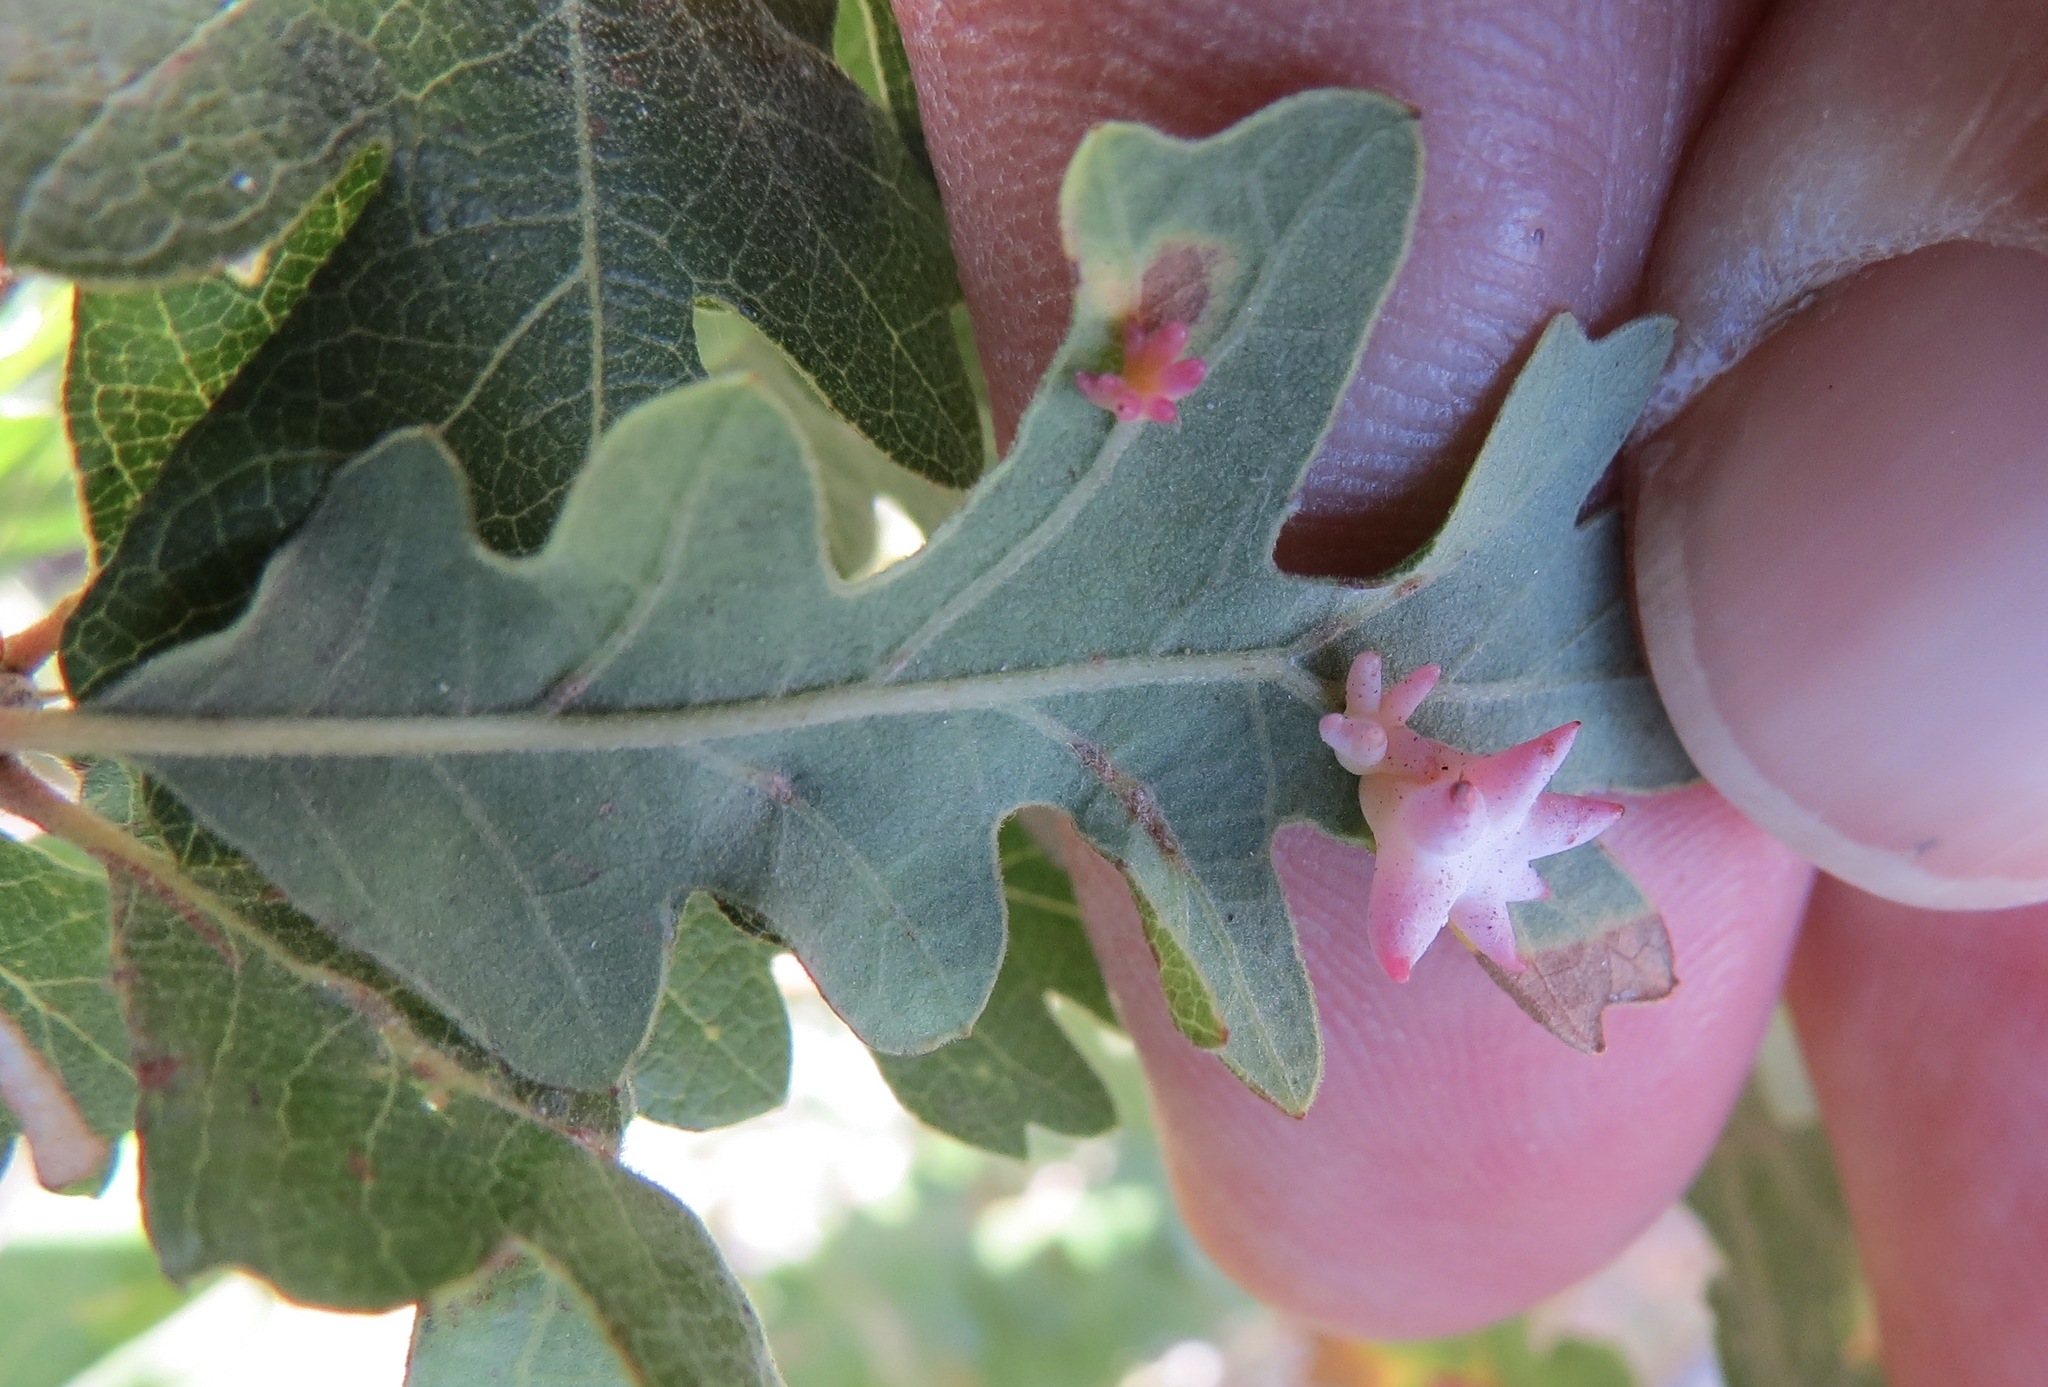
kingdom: Animalia
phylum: Arthropoda
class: Insecta
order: Hymenoptera
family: Cynipidae
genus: Cynips
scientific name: Cynips douglasi
